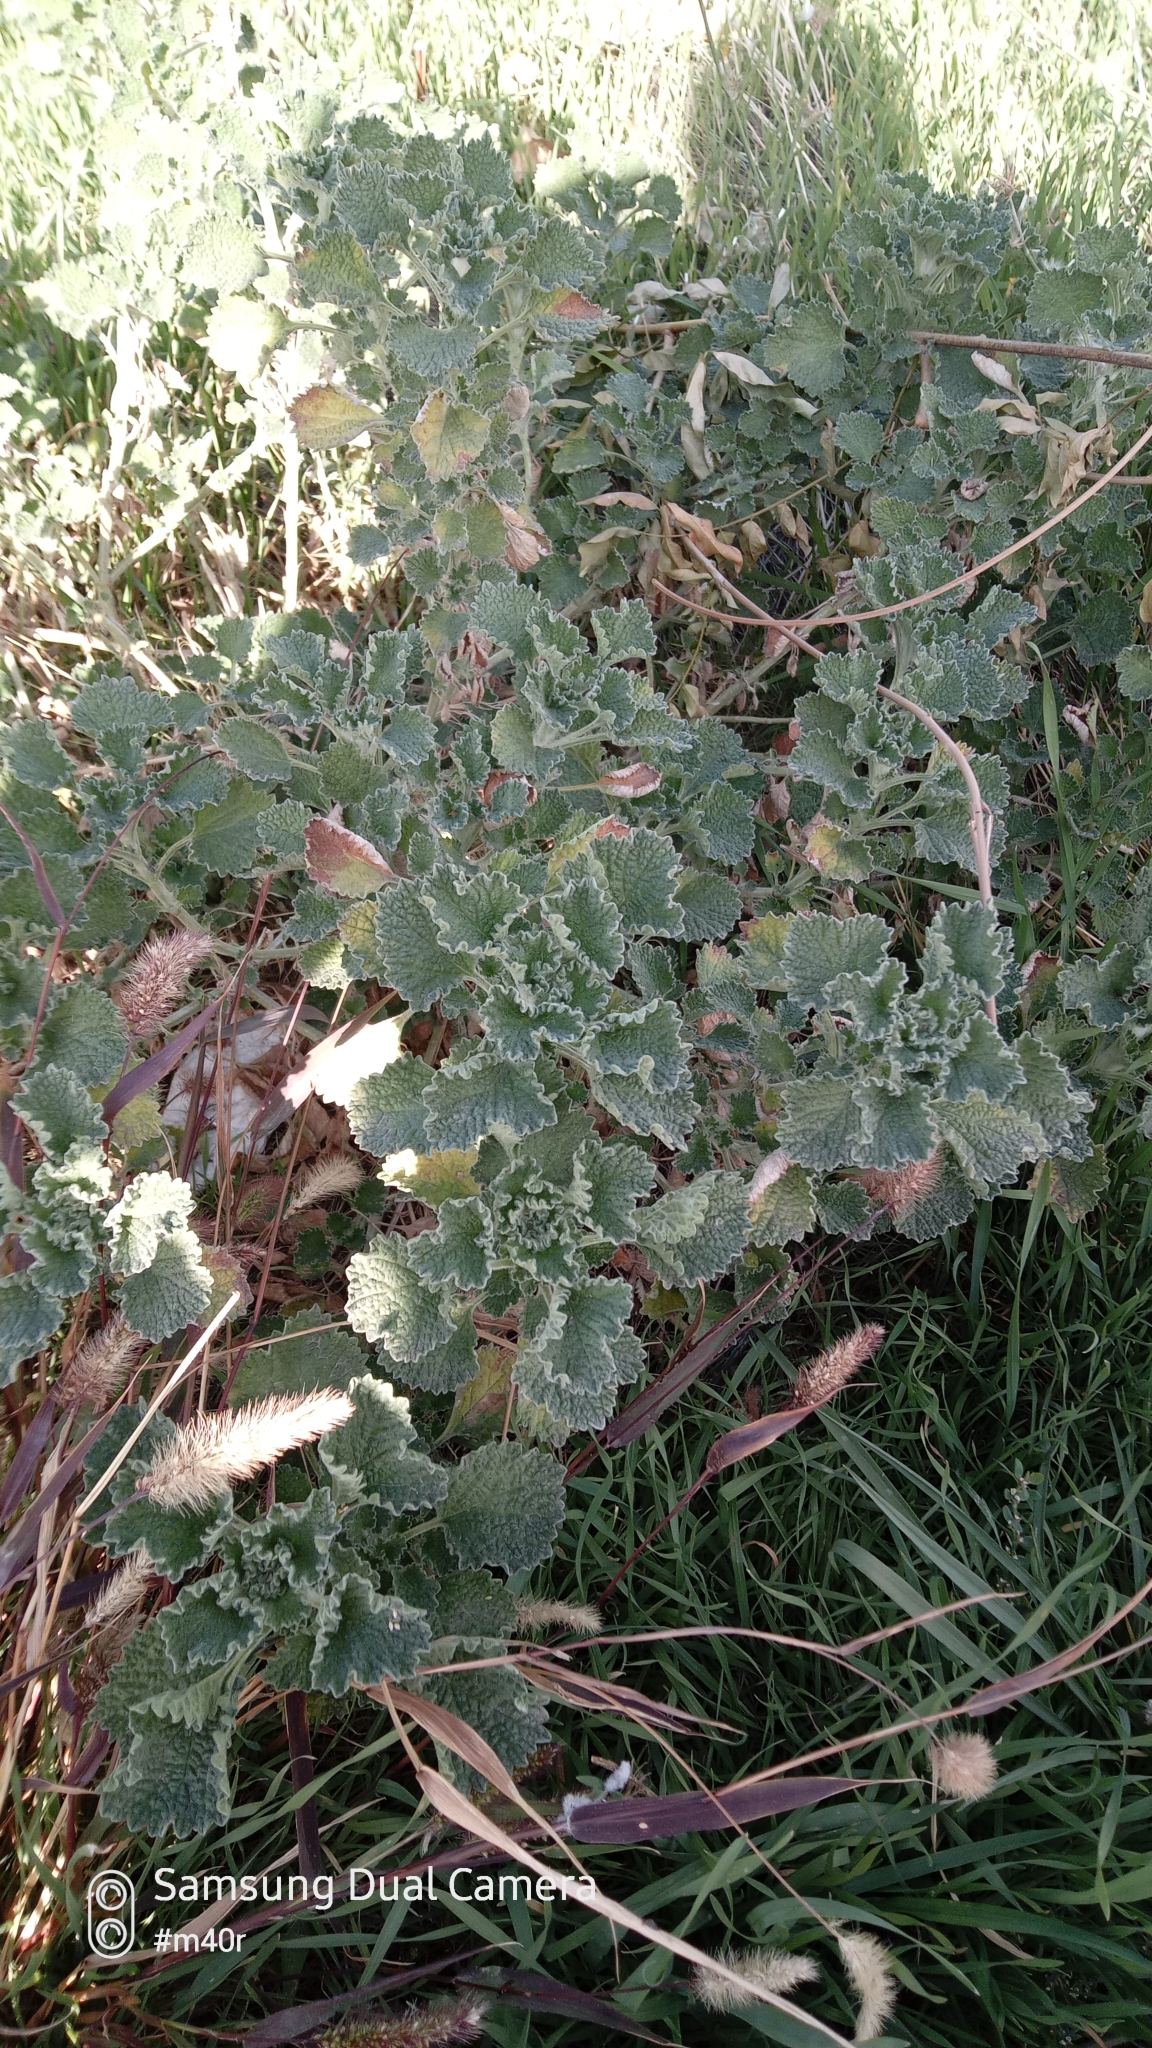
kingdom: Plantae
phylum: Tracheophyta
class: Magnoliopsida
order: Lamiales
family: Lamiaceae
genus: Marrubium
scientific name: Marrubium anisodon
